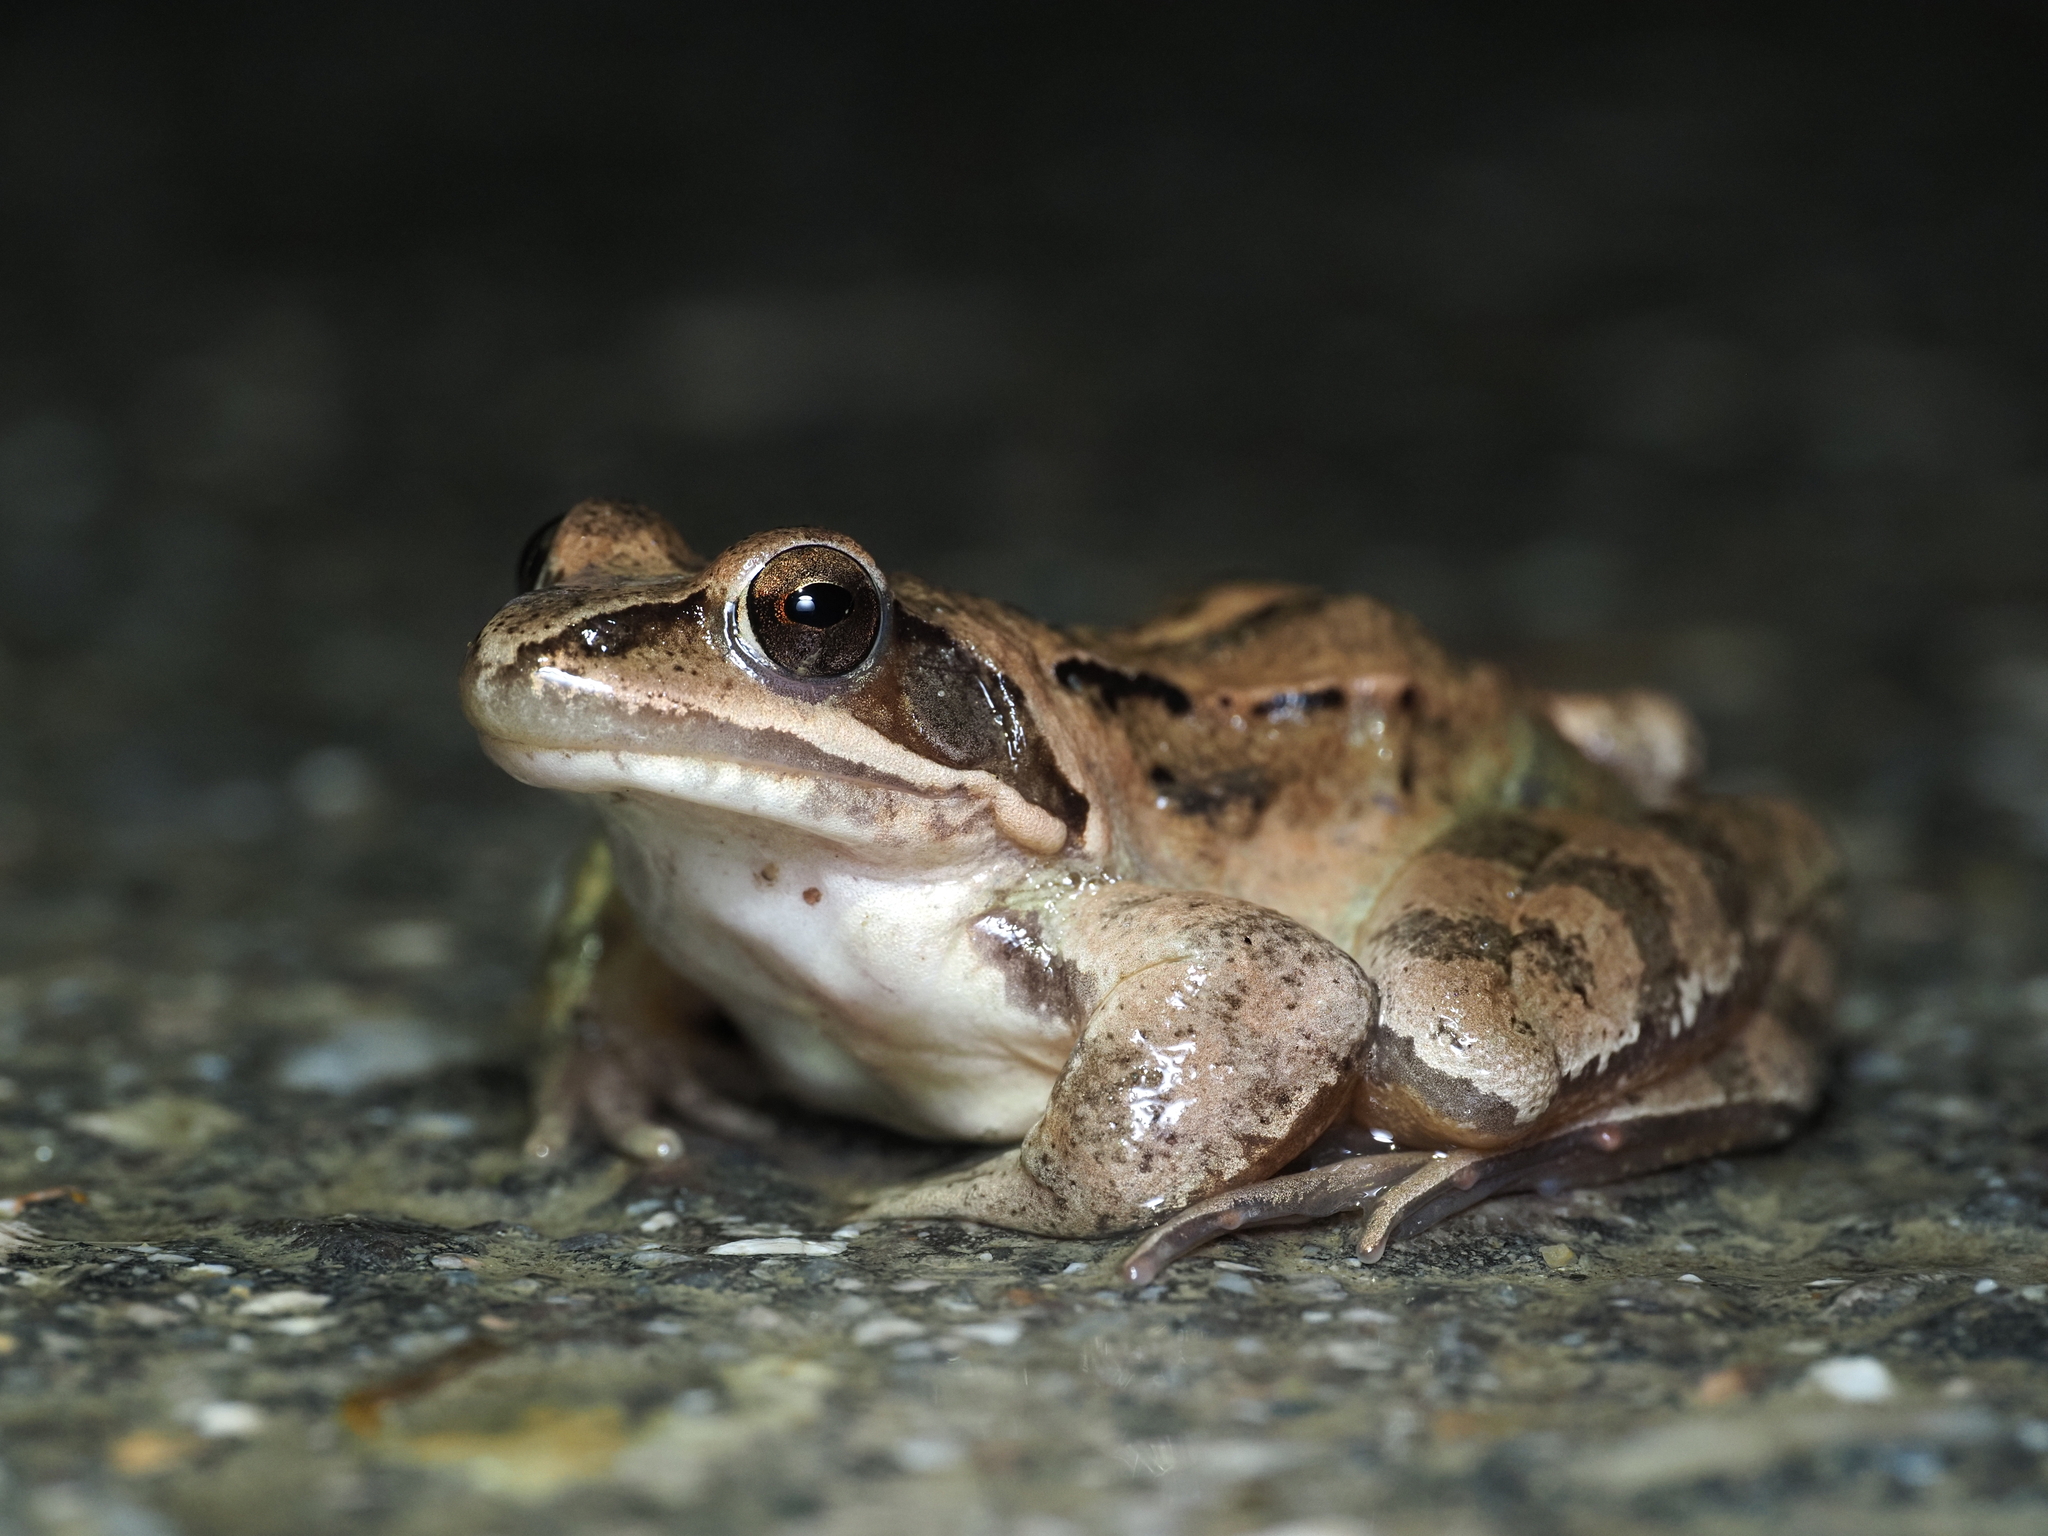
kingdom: Animalia
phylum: Chordata
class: Amphibia
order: Anura
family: Ranidae
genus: Rana
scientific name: Rana dalmatina
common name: Agile frog
